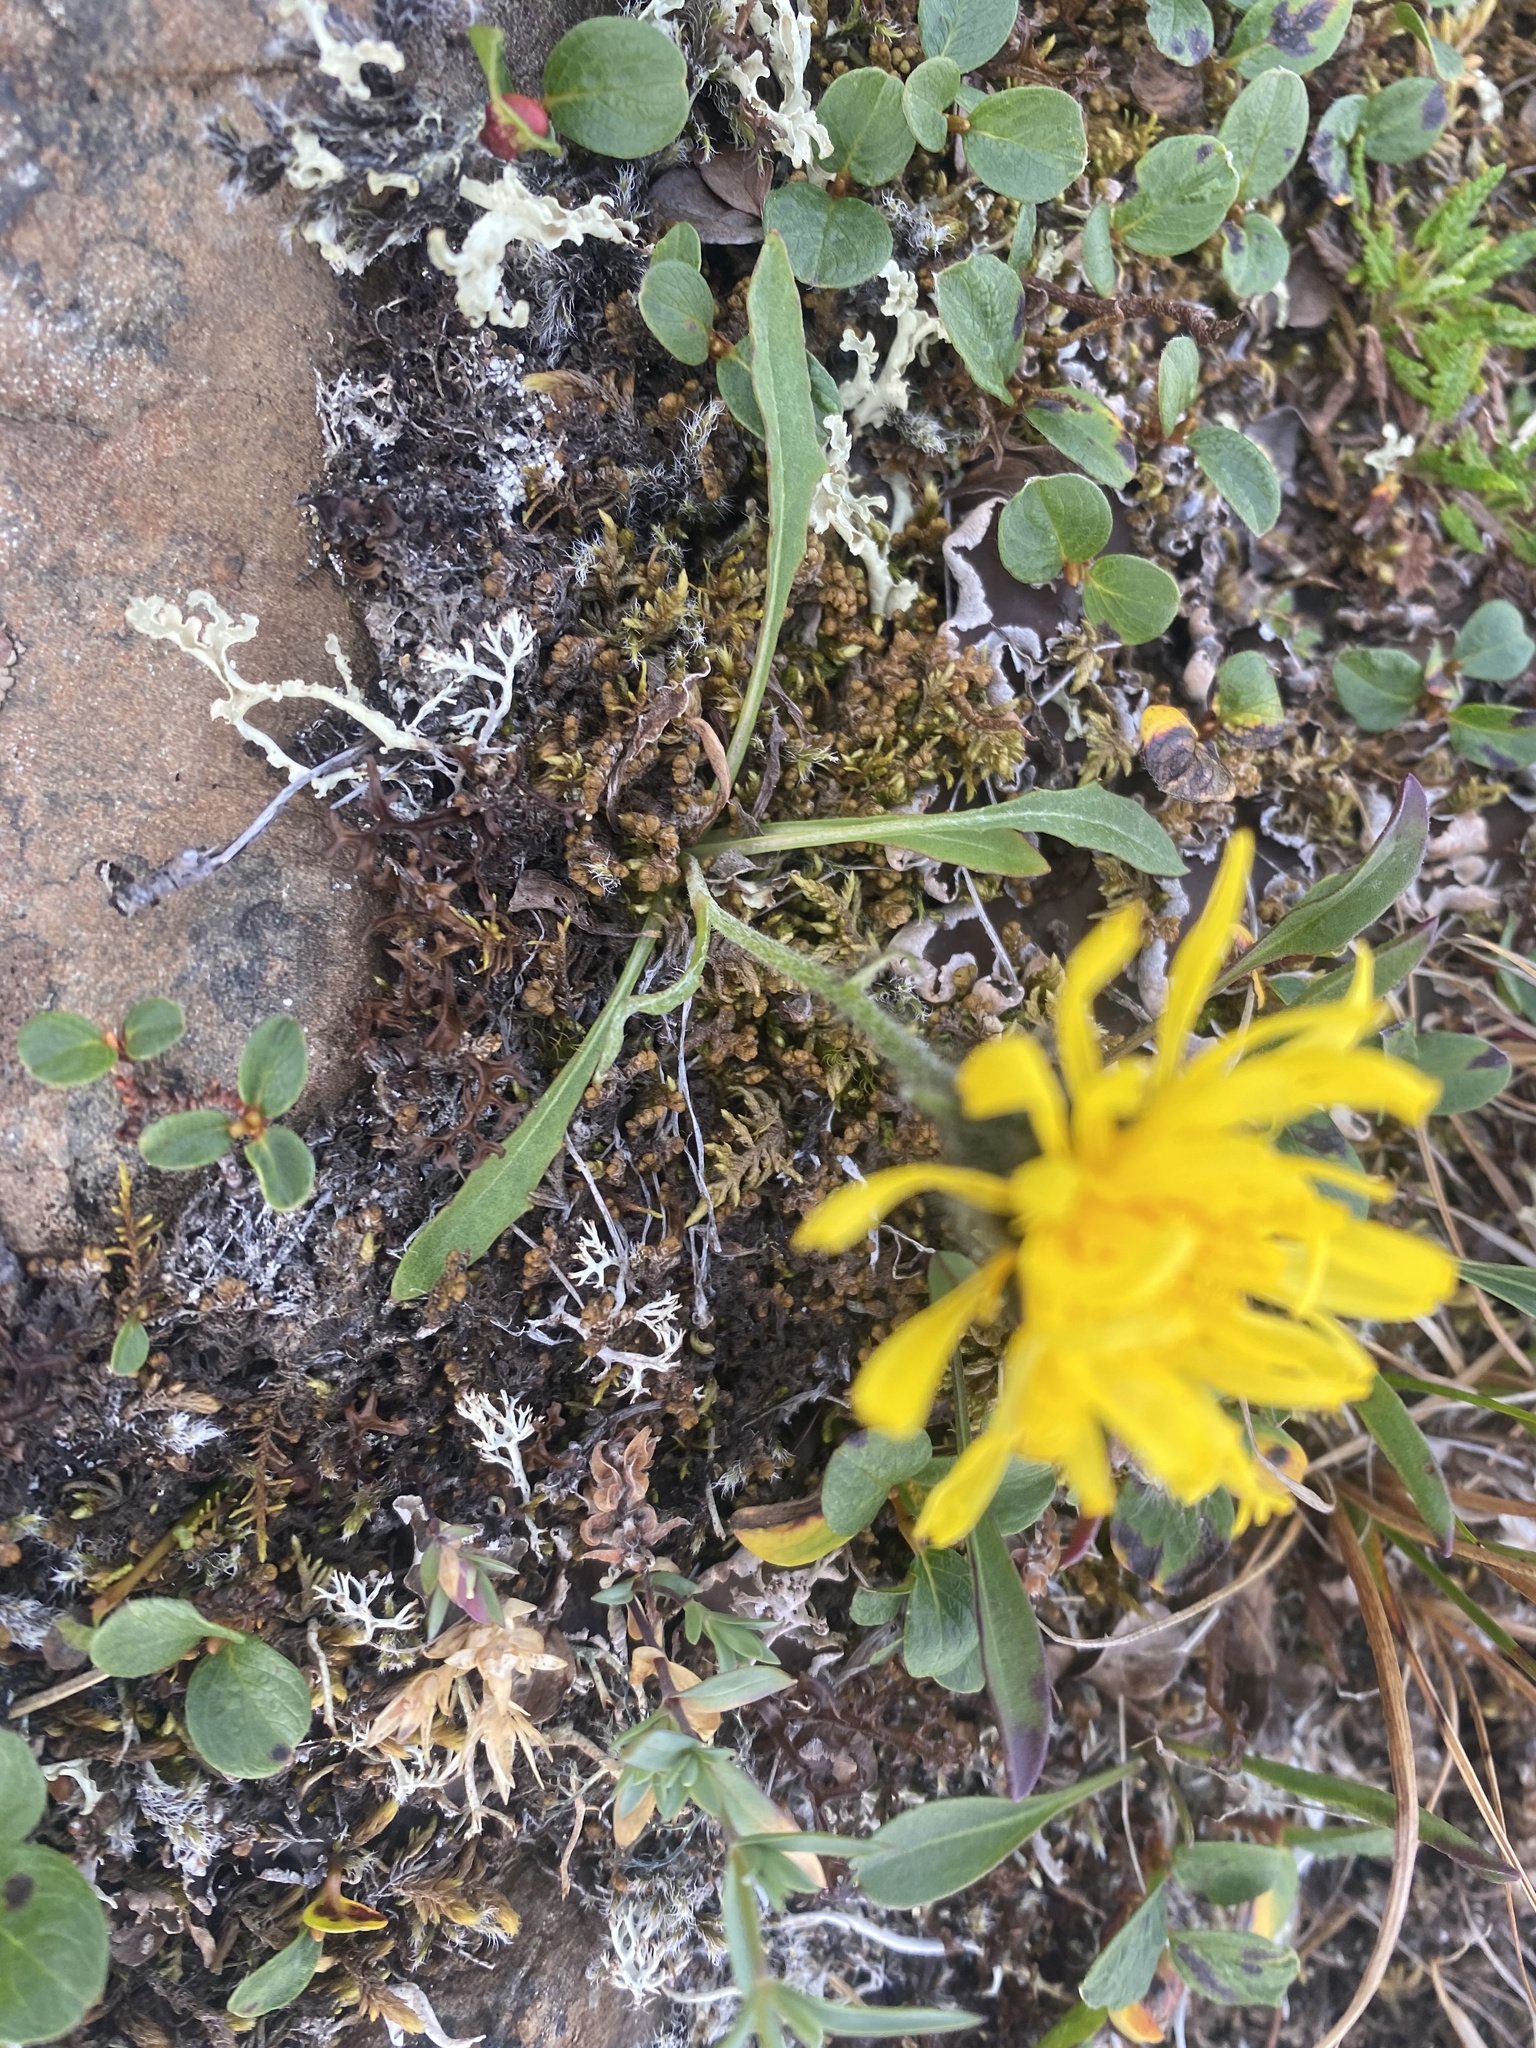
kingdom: Plantae
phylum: Tracheophyta
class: Magnoliopsida
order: Asterales
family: Asteraceae
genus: Crepis
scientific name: Crepis chrysantha
